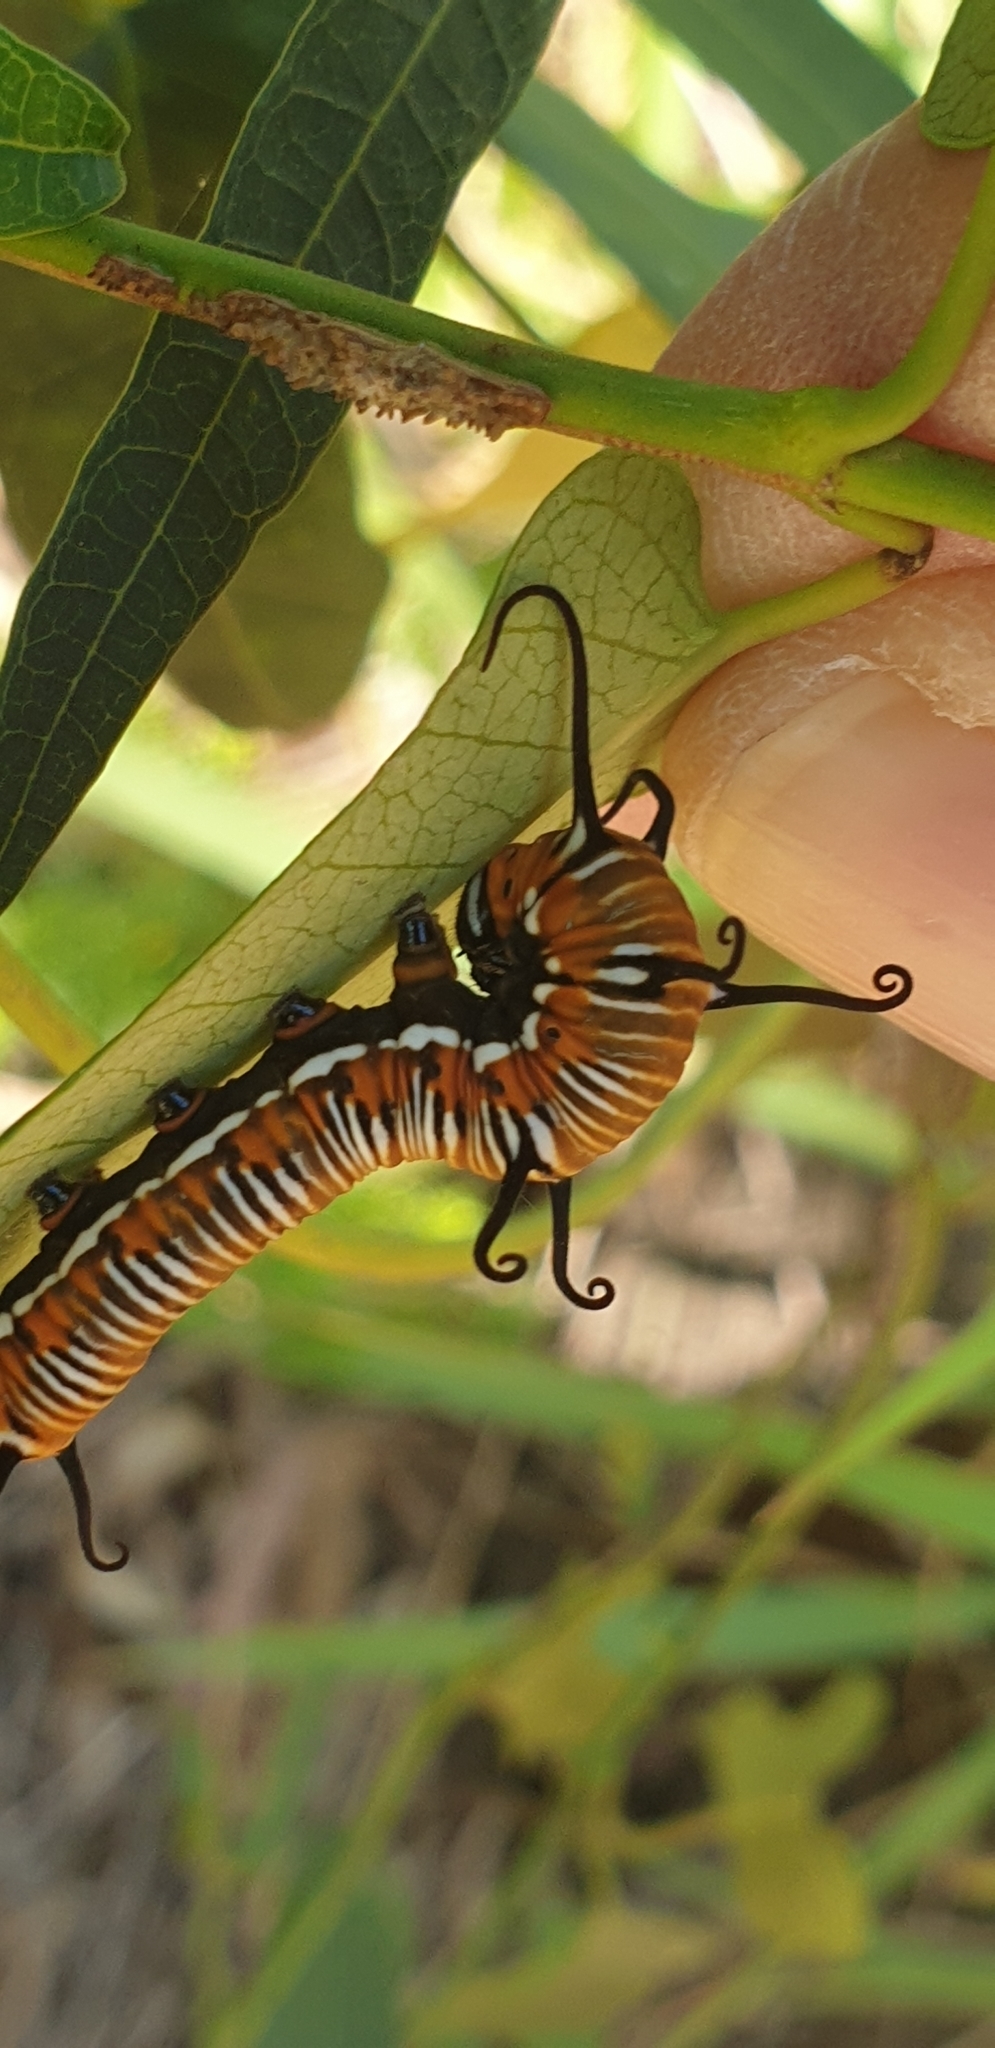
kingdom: Animalia
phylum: Arthropoda
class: Insecta
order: Lepidoptera
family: Nymphalidae
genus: Euploea
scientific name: Euploea core
